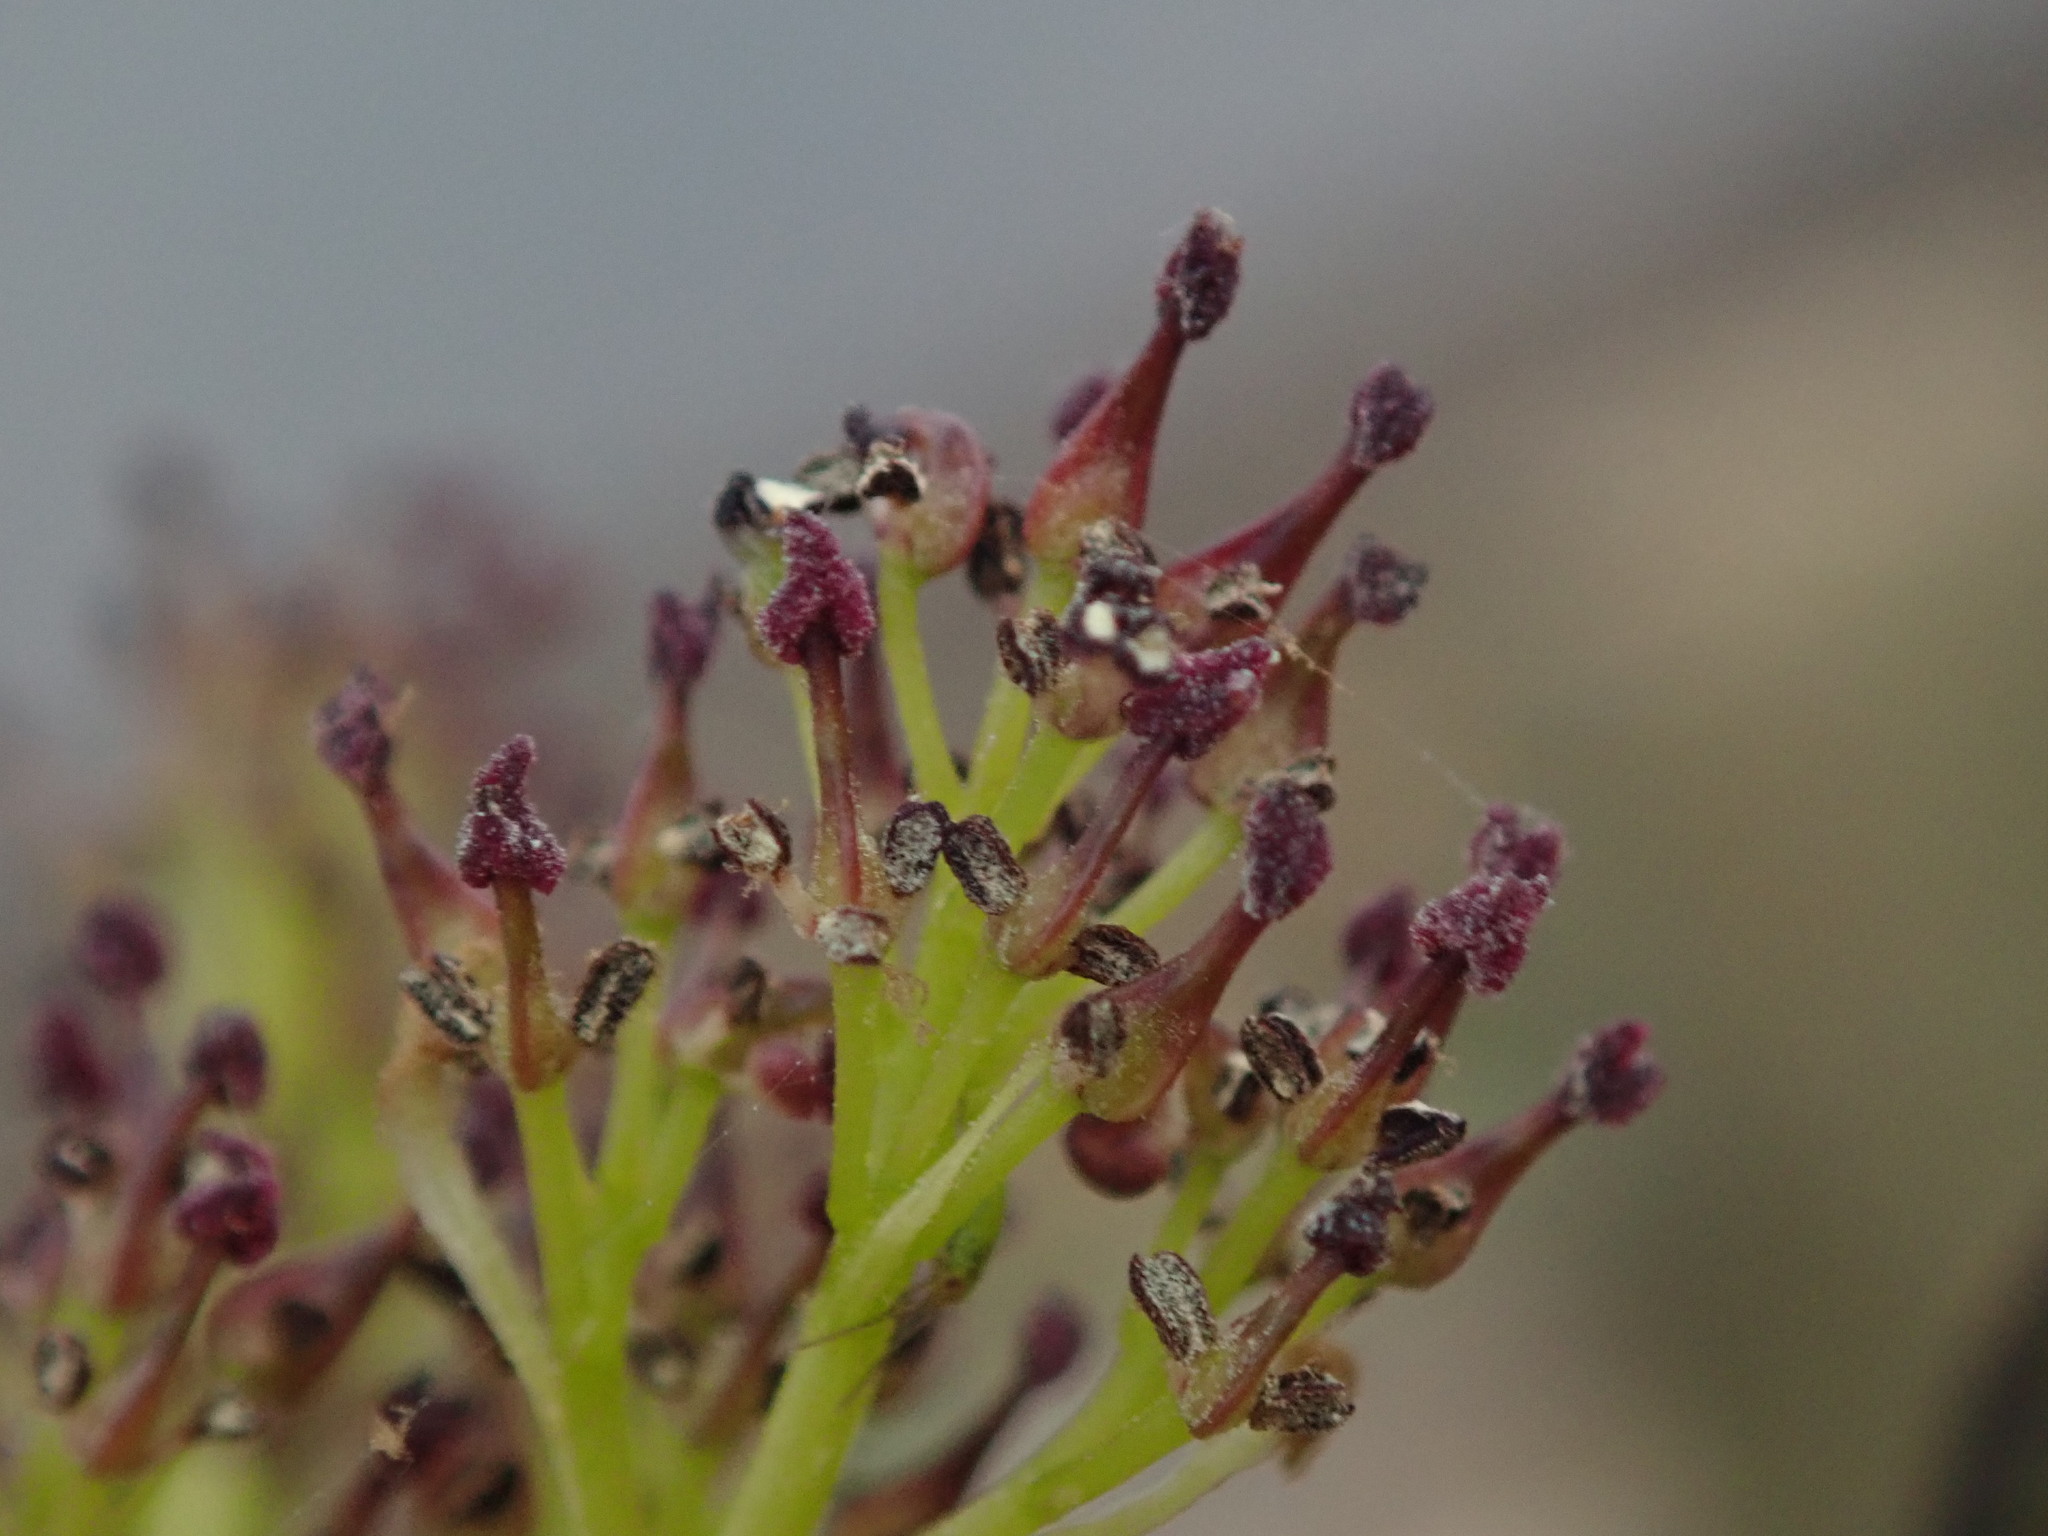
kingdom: Plantae
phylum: Tracheophyta
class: Magnoliopsida
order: Lamiales
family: Oleaceae
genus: Fraxinus
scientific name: Fraxinus excelsior
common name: European ash
